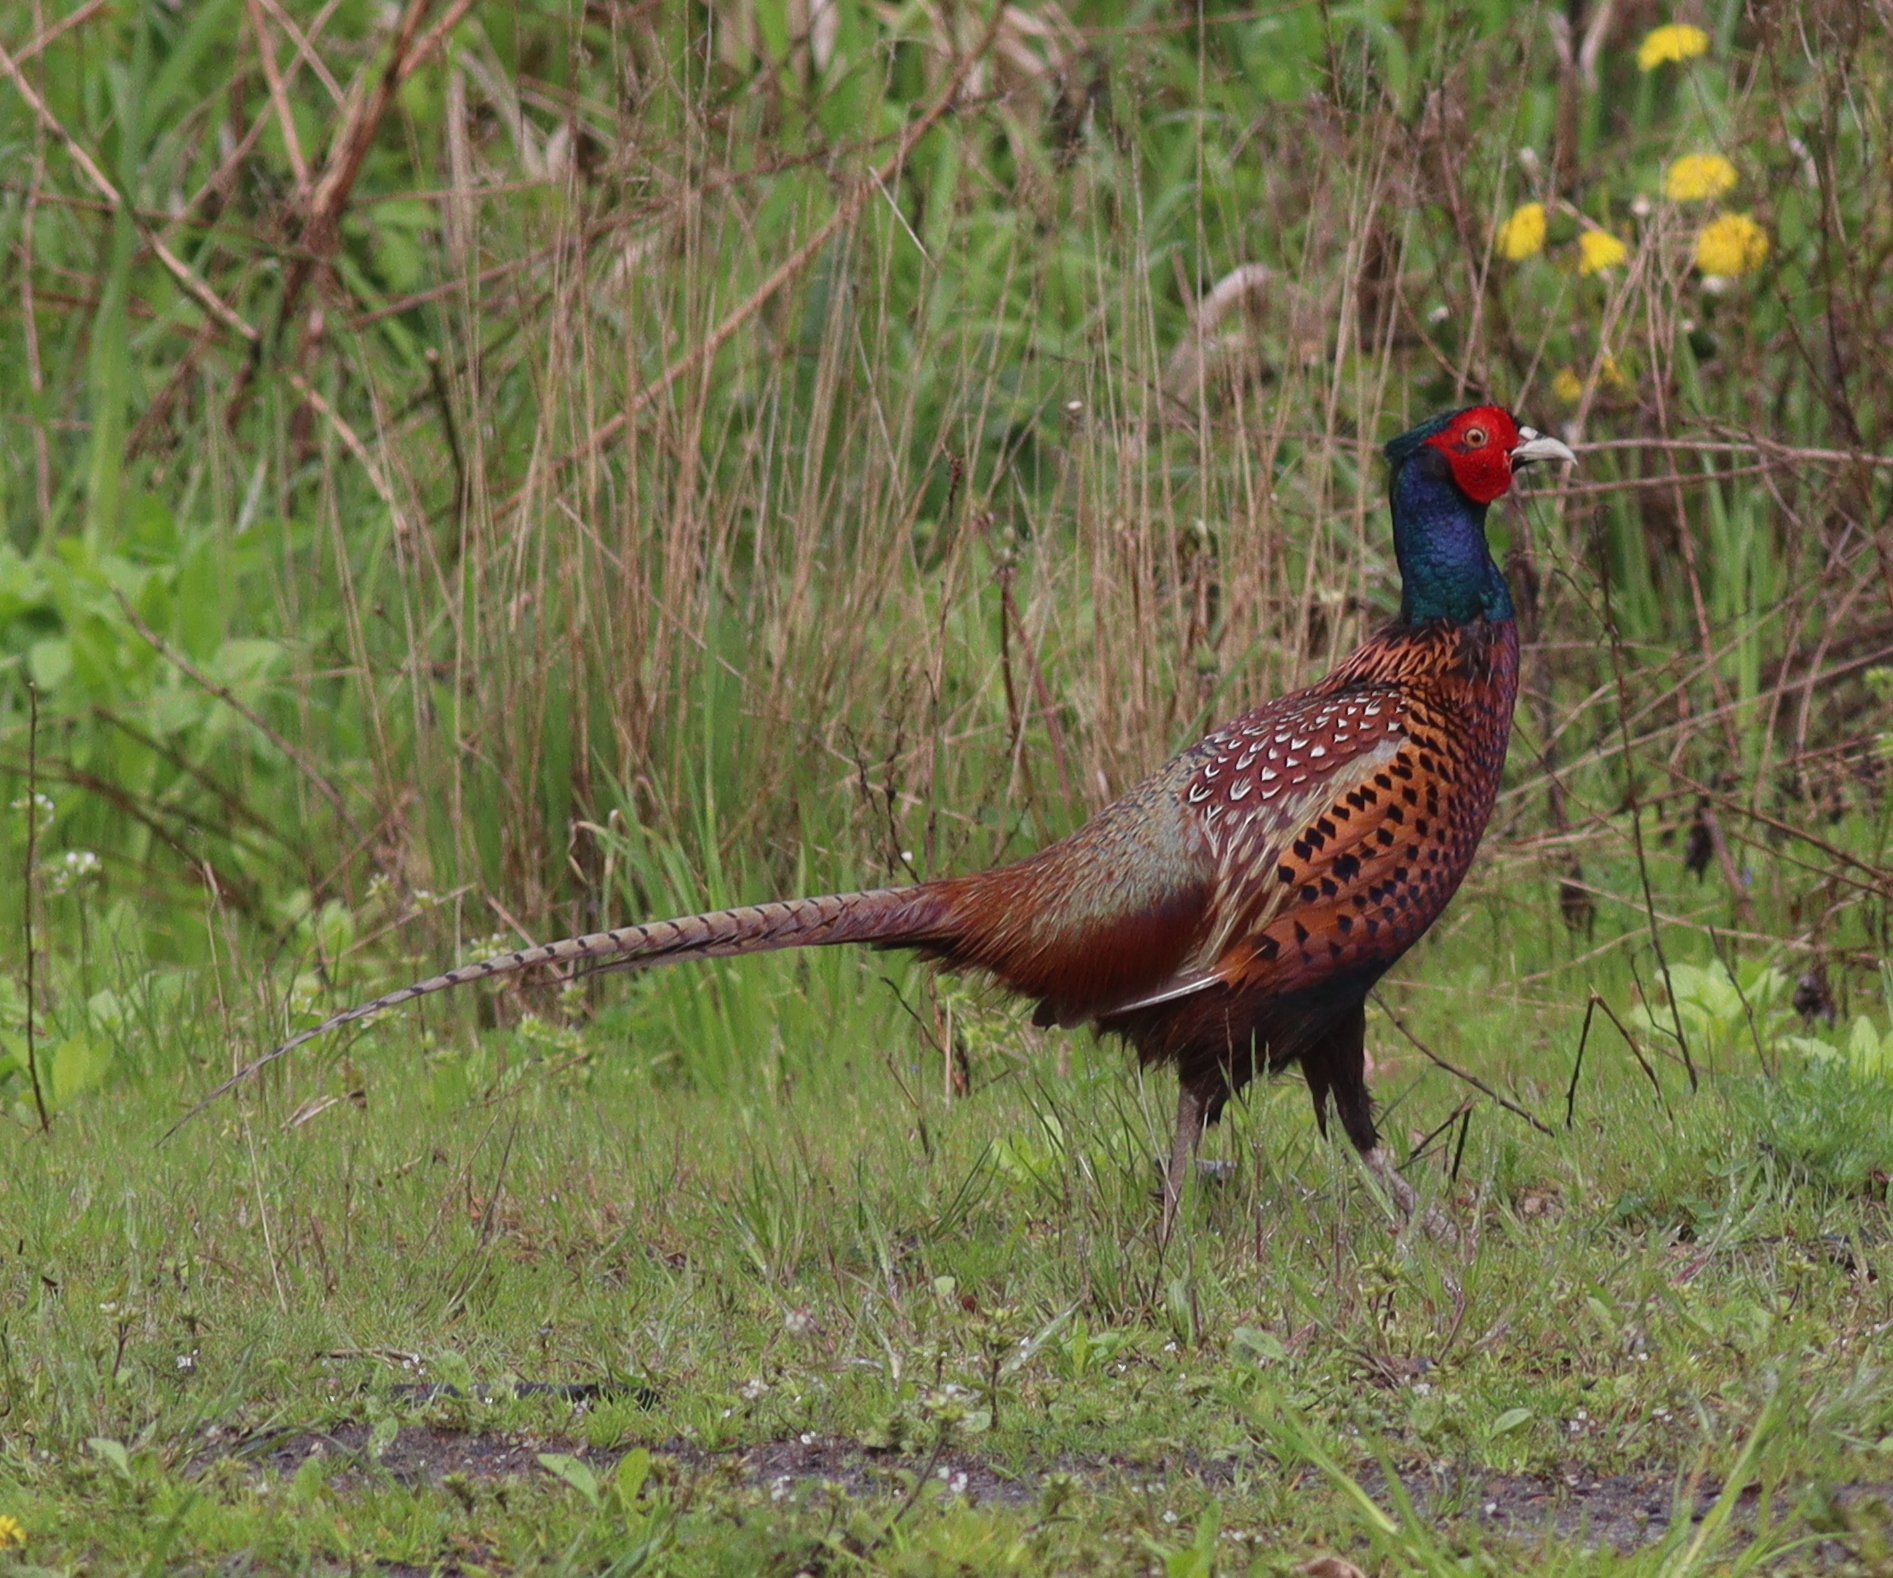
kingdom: Animalia
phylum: Chordata
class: Aves
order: Galliformes
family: Phasianidae
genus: Phasianus
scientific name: Phasianus colchicus
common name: Common pheasant
